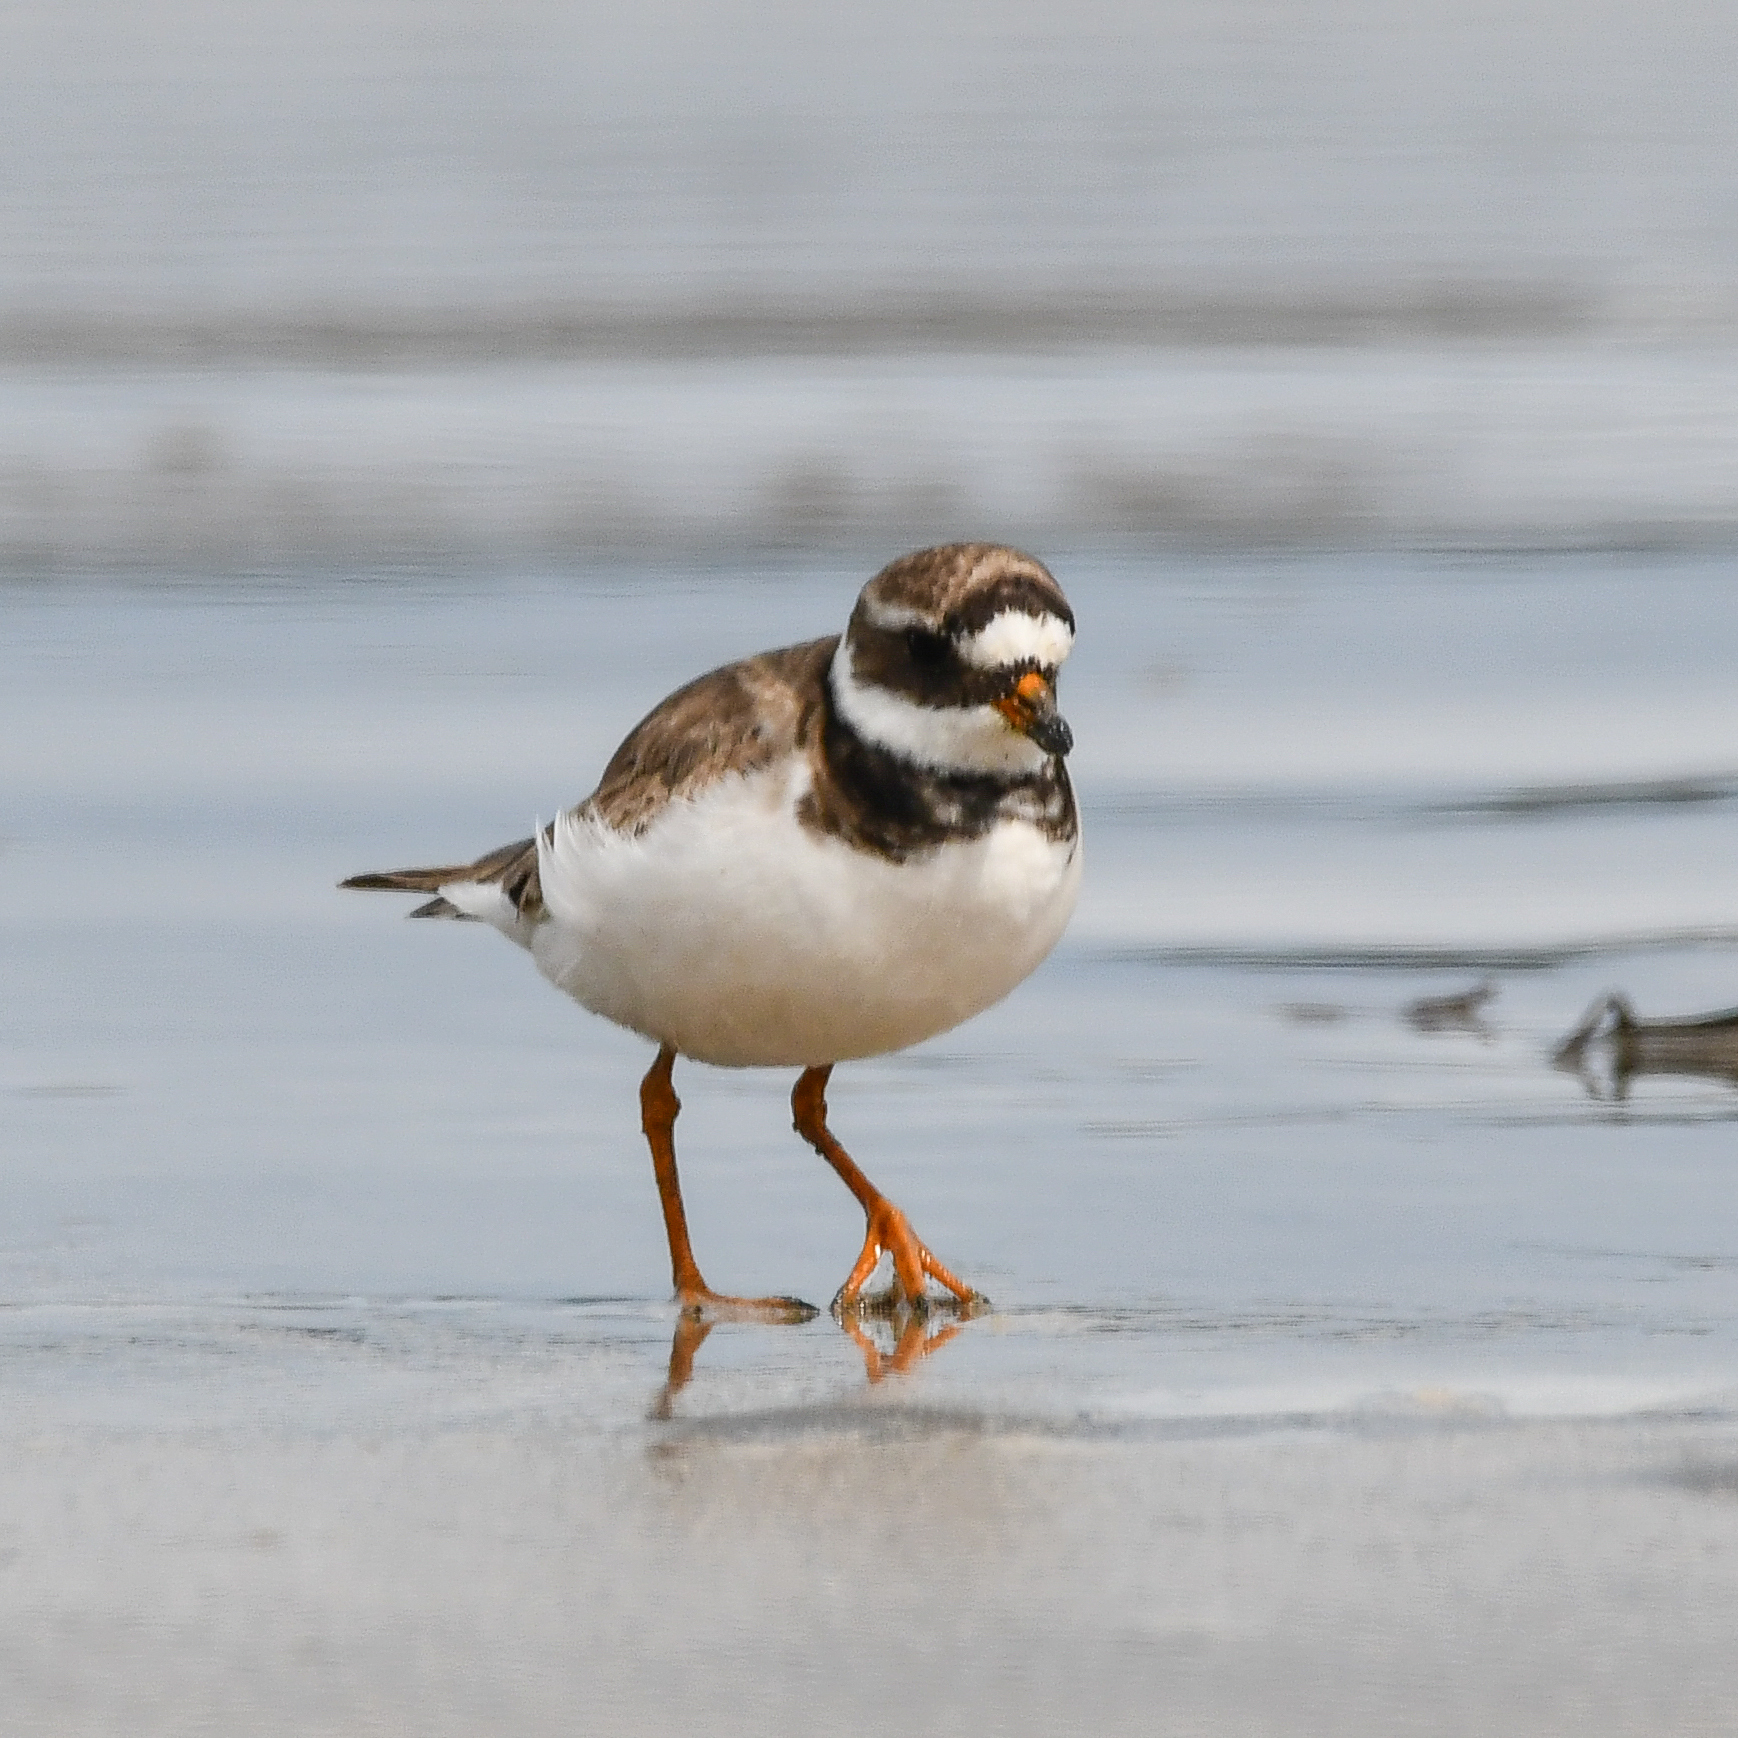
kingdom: Animalia
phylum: Chordata
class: Aves
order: Charadriiformes
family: Charadriidae
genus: Charadrius
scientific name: Charadrius hiaticula
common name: Common ringed plover
